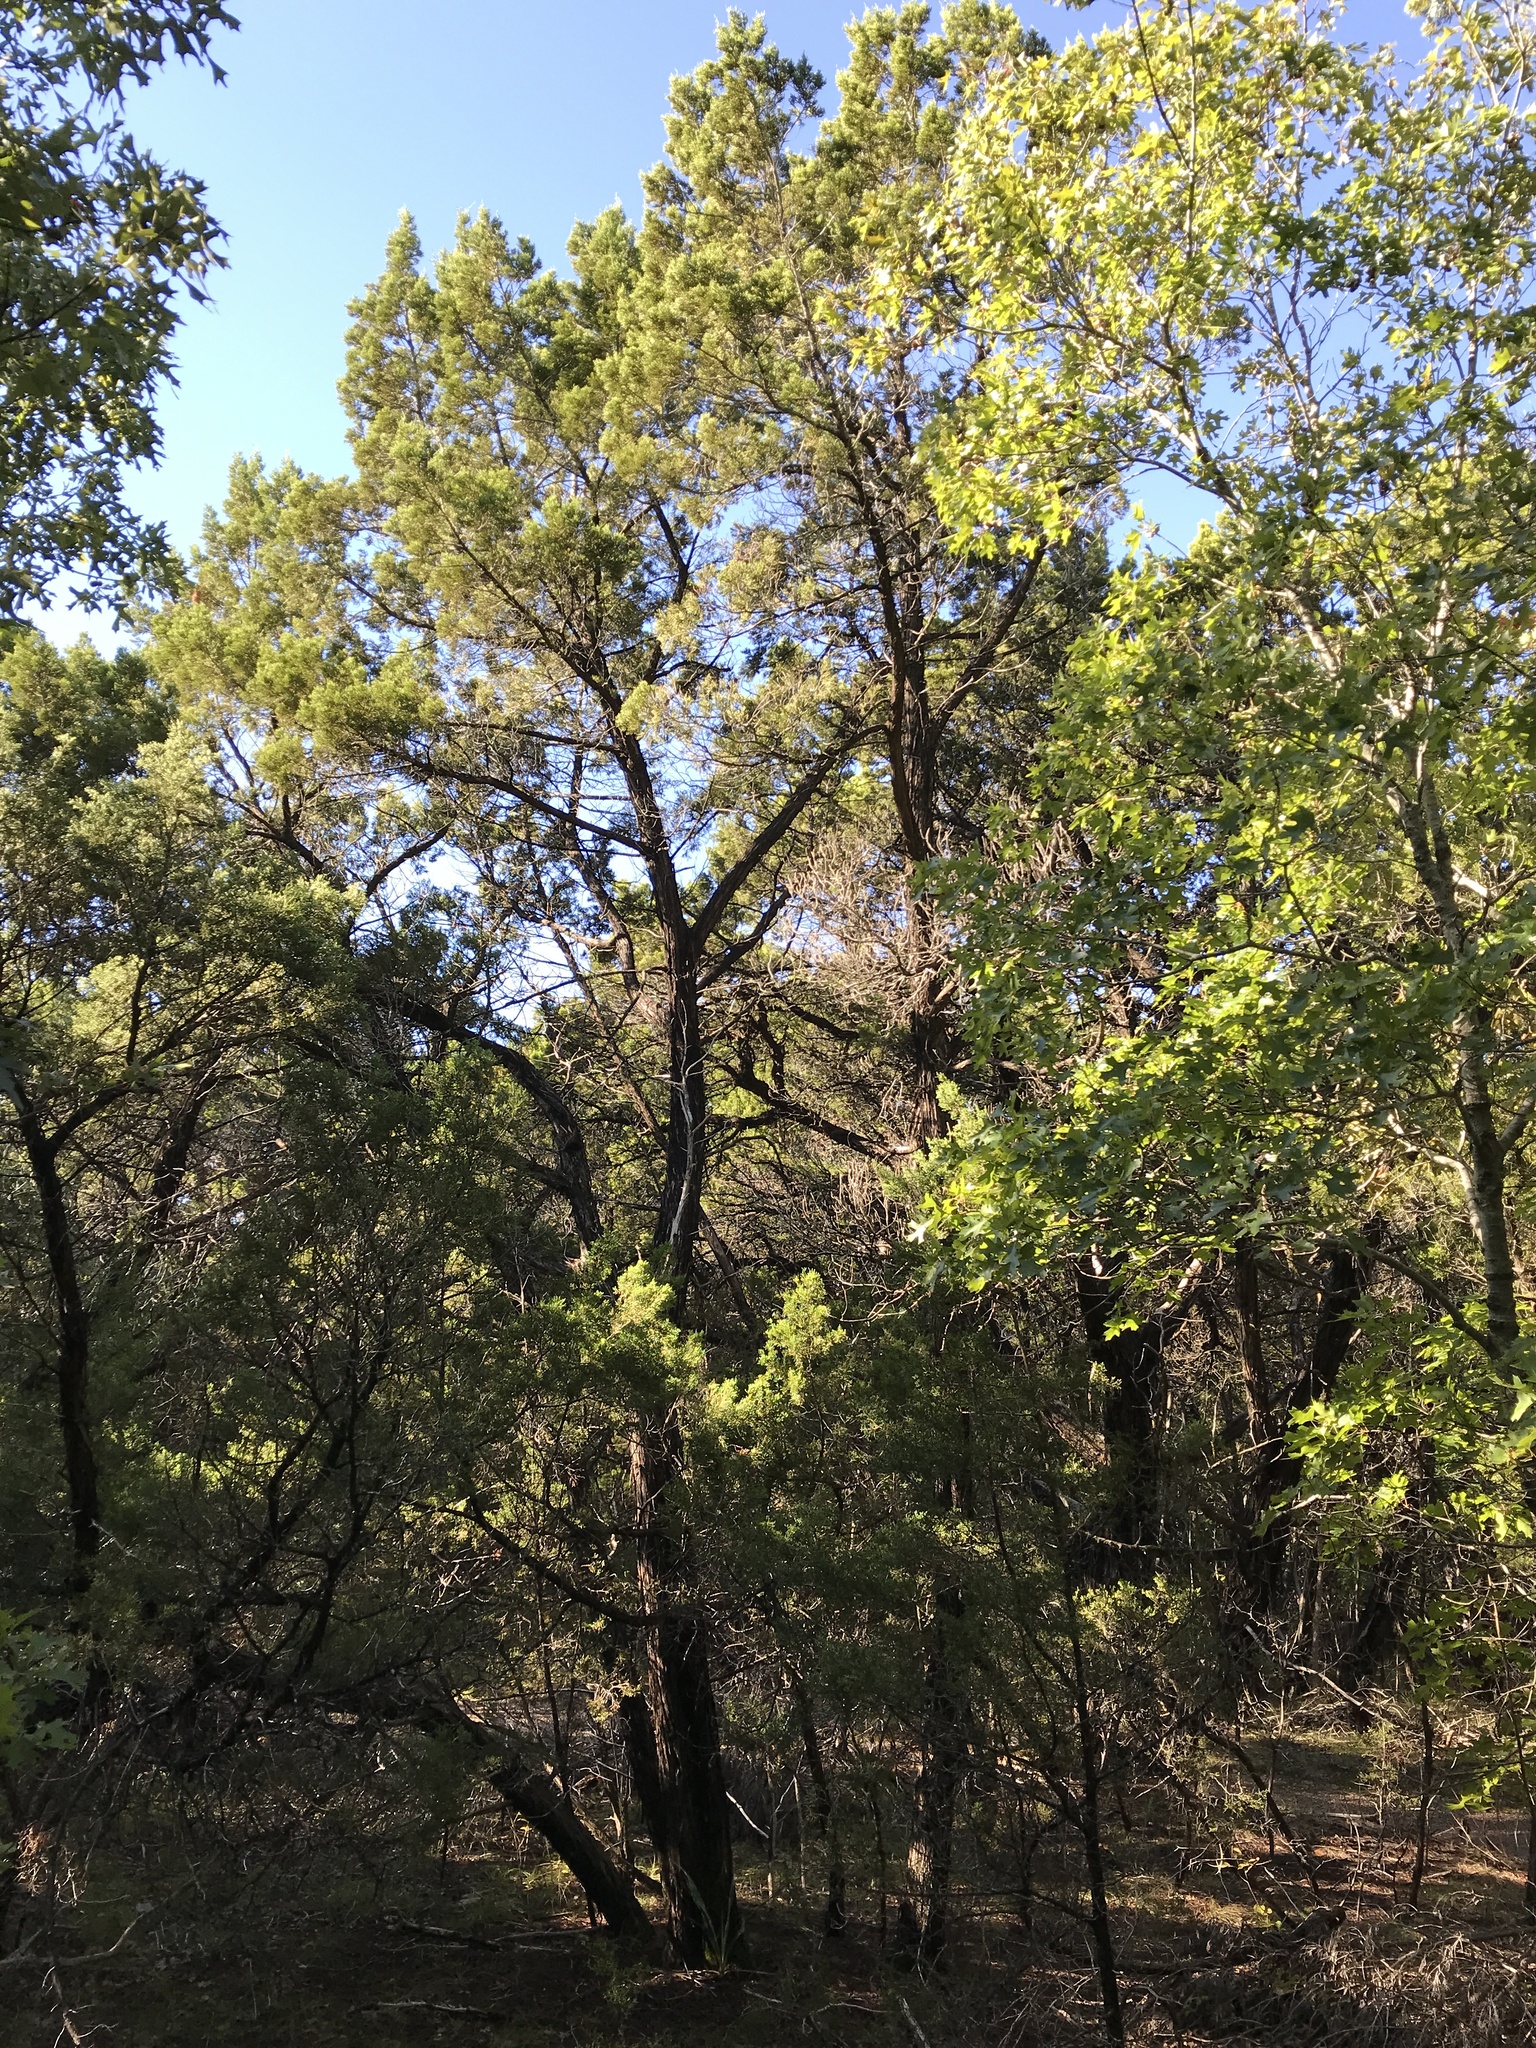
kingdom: Plantae
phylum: Tracheophyta
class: Pinopsida
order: Pinales
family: Cupressaceae
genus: Juniperus
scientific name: Juniperus ashei
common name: Mexican juniper
